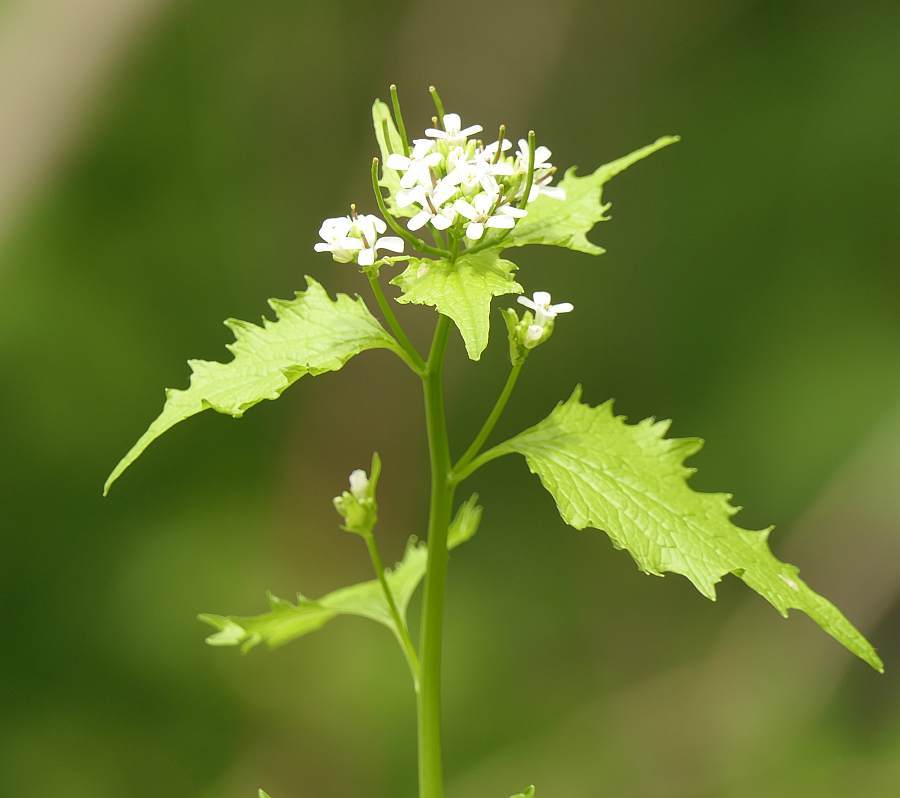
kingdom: Plantae
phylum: Tracheophyta
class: Magnoliopsida
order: Brassicales
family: Brassicaceae
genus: Alliaria
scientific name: Alliaria petiolata
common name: Garlic mustard
